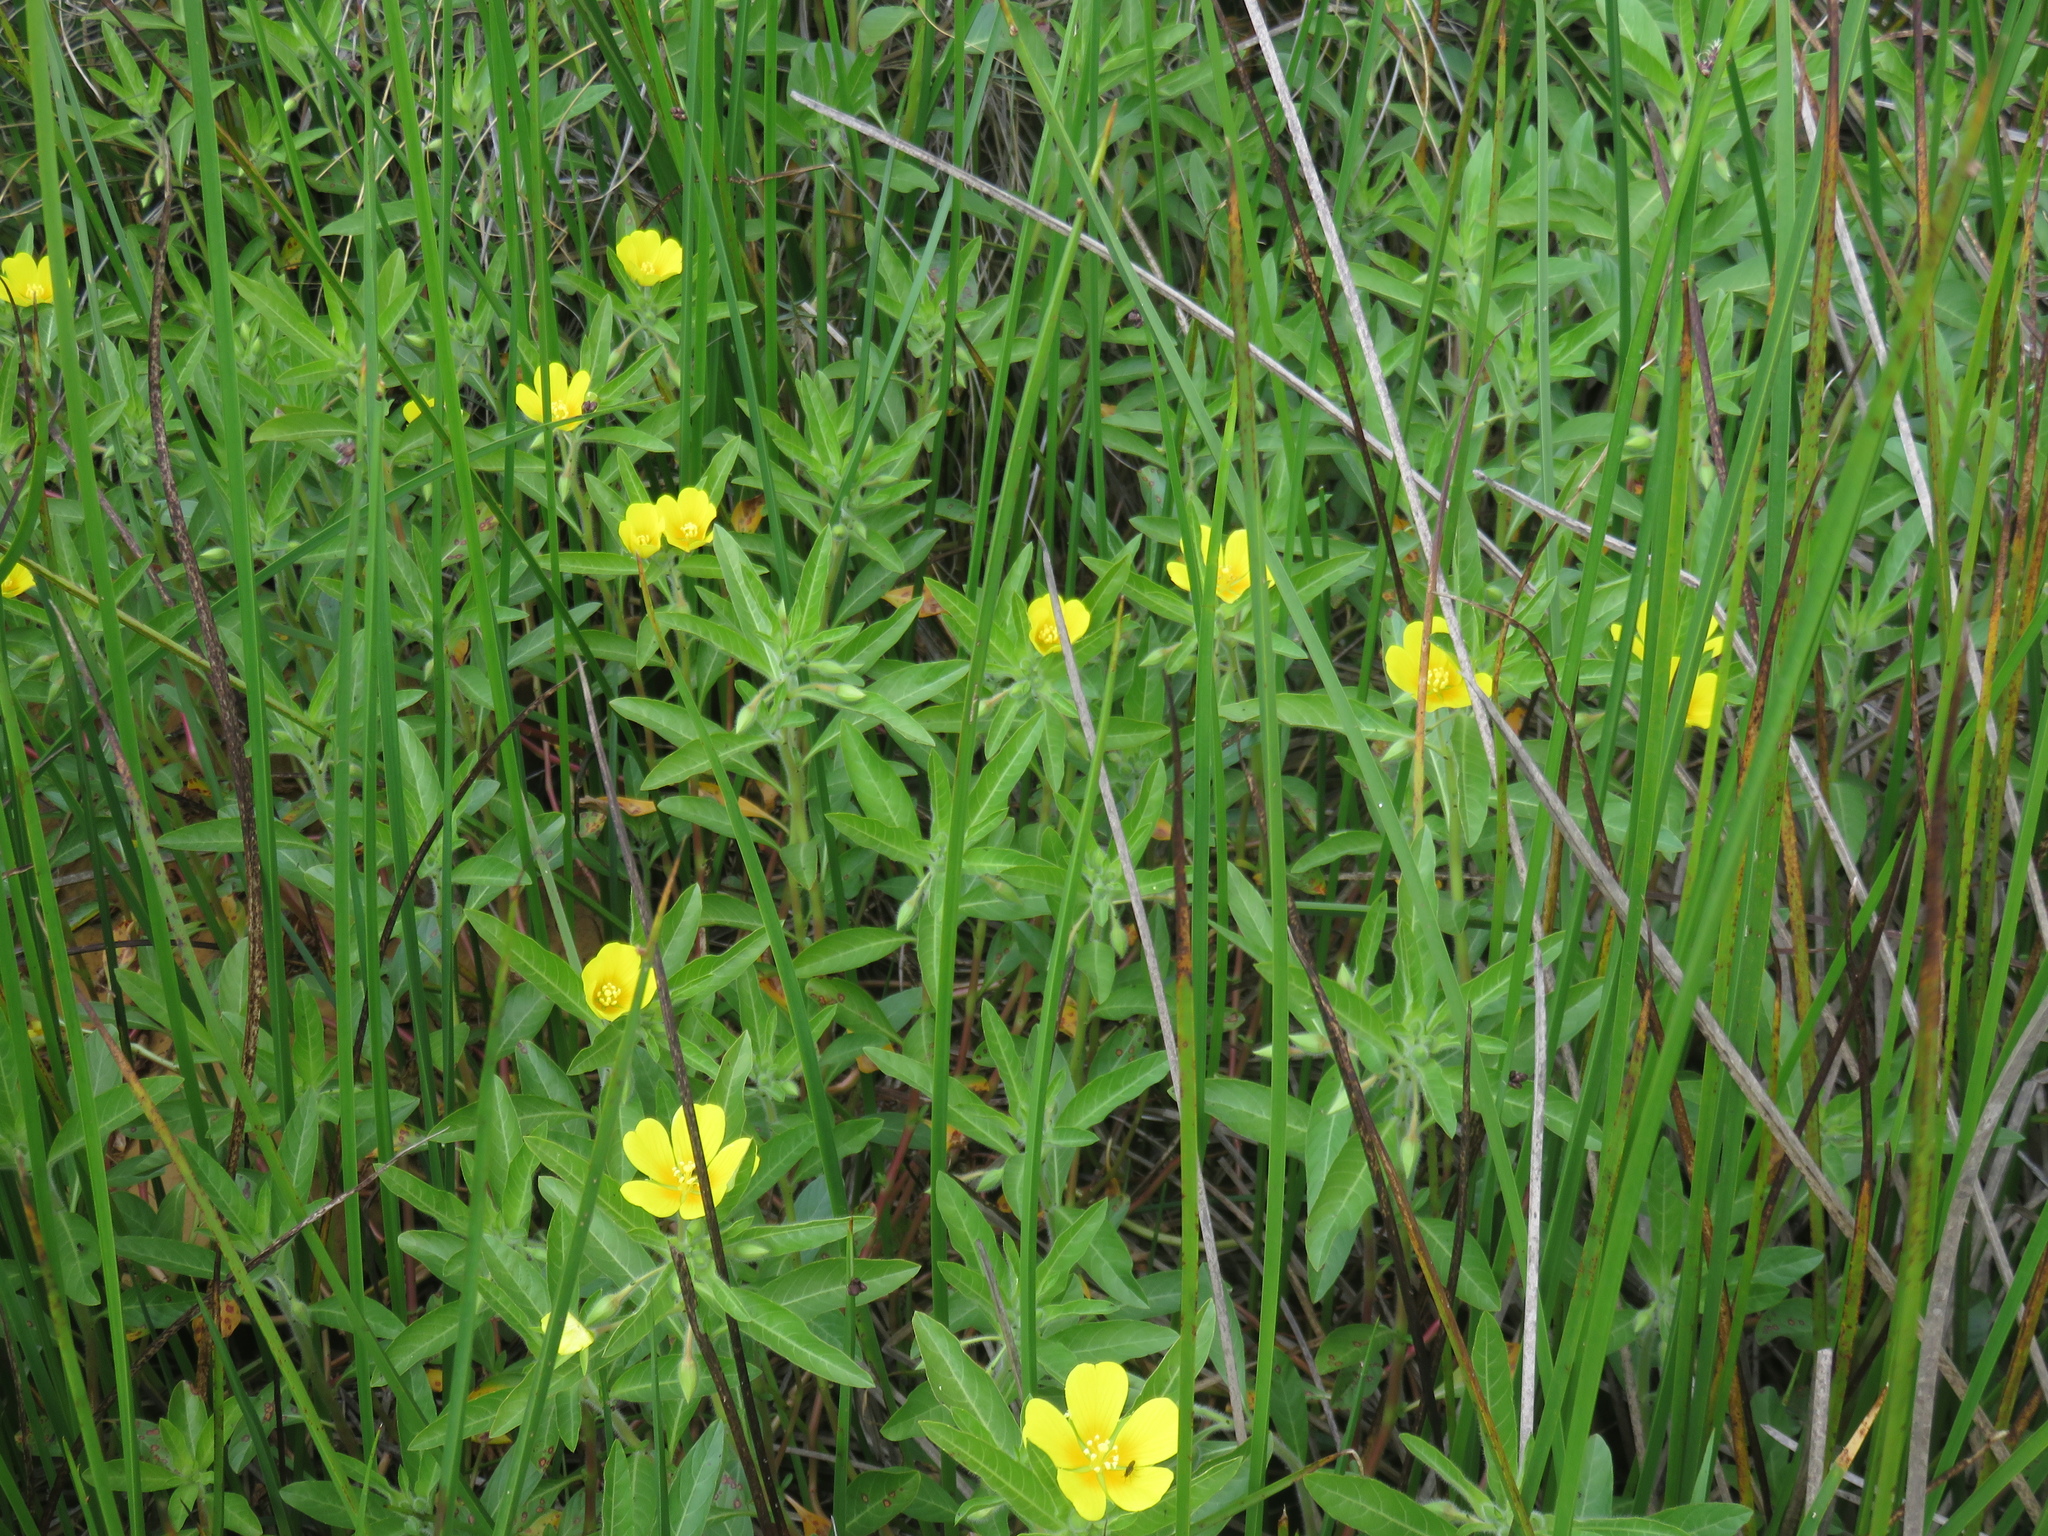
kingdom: Plantae
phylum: Tracheophyta
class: Magnoliopsida
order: Myrtales
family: Onagraceae
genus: Ludwigia
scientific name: Ludwigia peploides
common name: Floating primrose-willow
